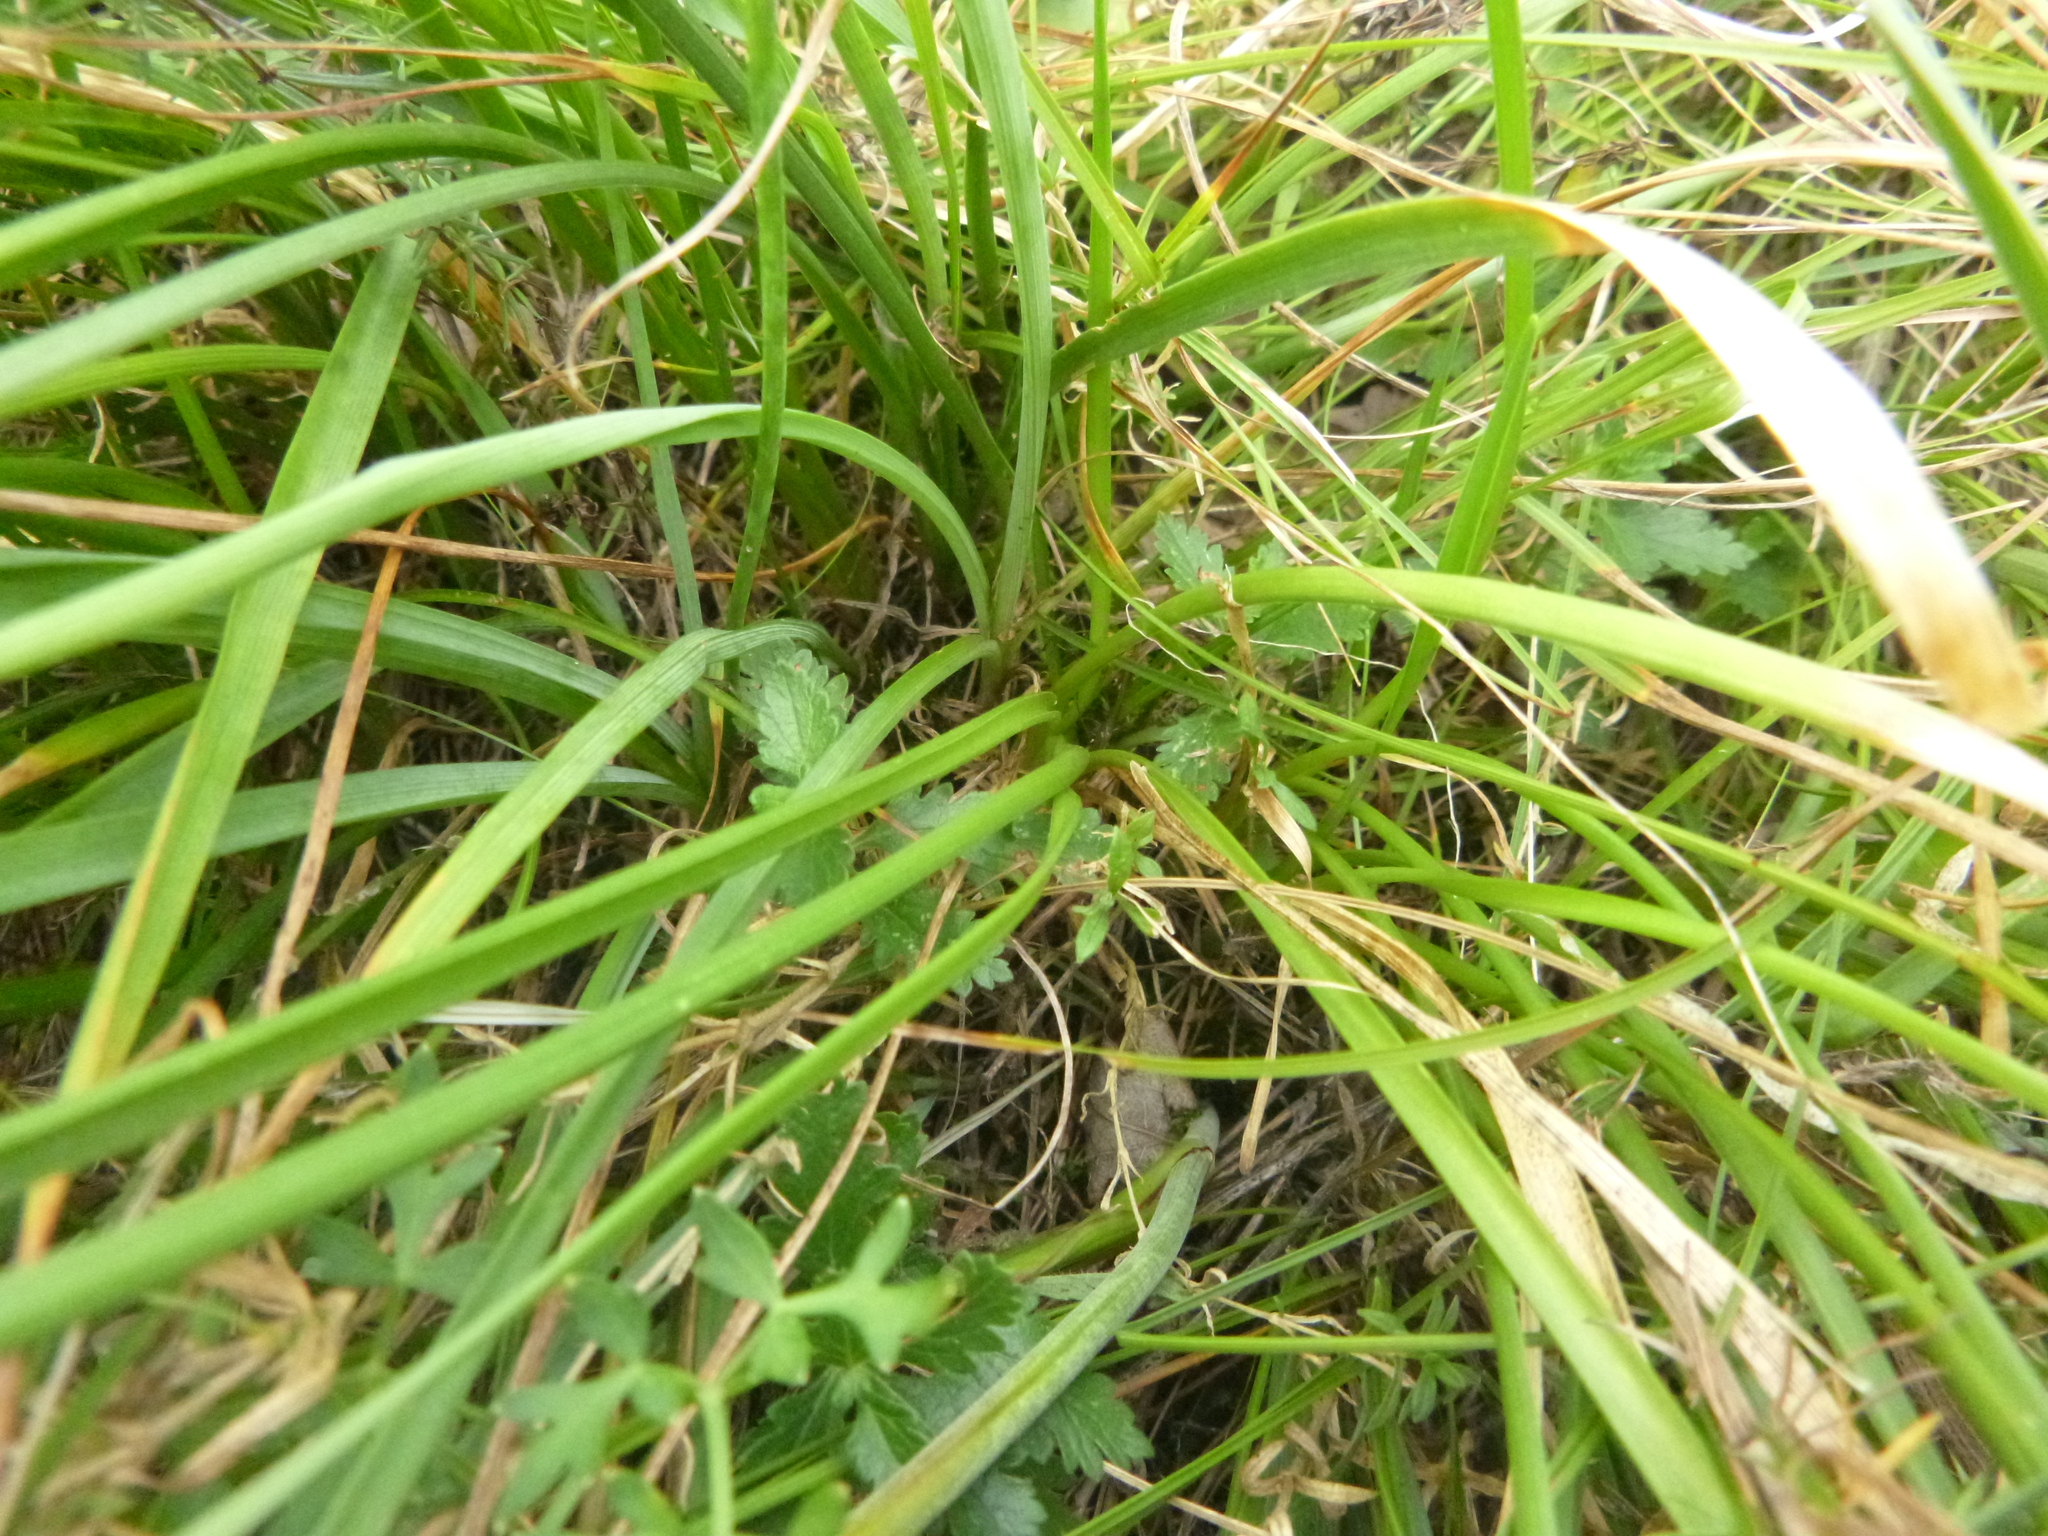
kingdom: Plantae
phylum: Tracheophyta
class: Liliopsida
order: Asparagales
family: Amaryllidaceae
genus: Allium
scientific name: Allium lusitanicum
